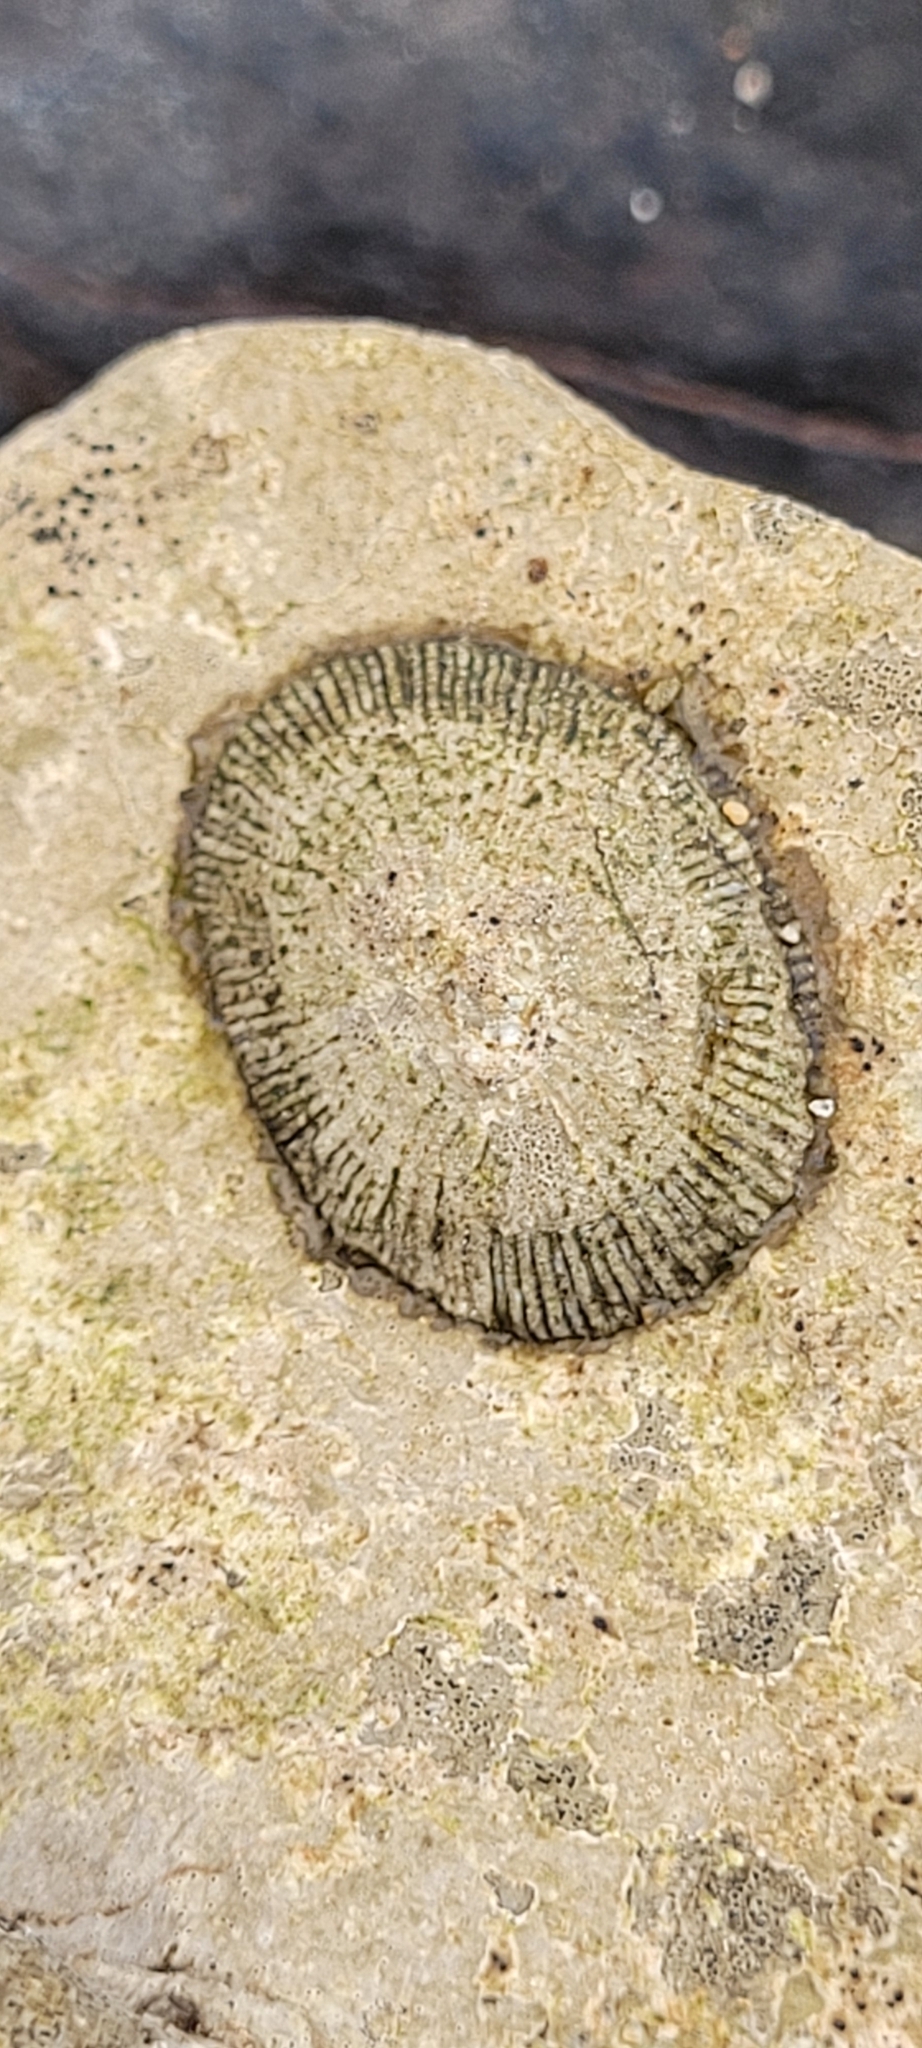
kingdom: Animalia
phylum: Mollusca
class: Gastropoda
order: Siphonariida
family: Siphonariidae
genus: Siphonaria
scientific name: Siphonaria pectinata
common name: Striped false limpet
